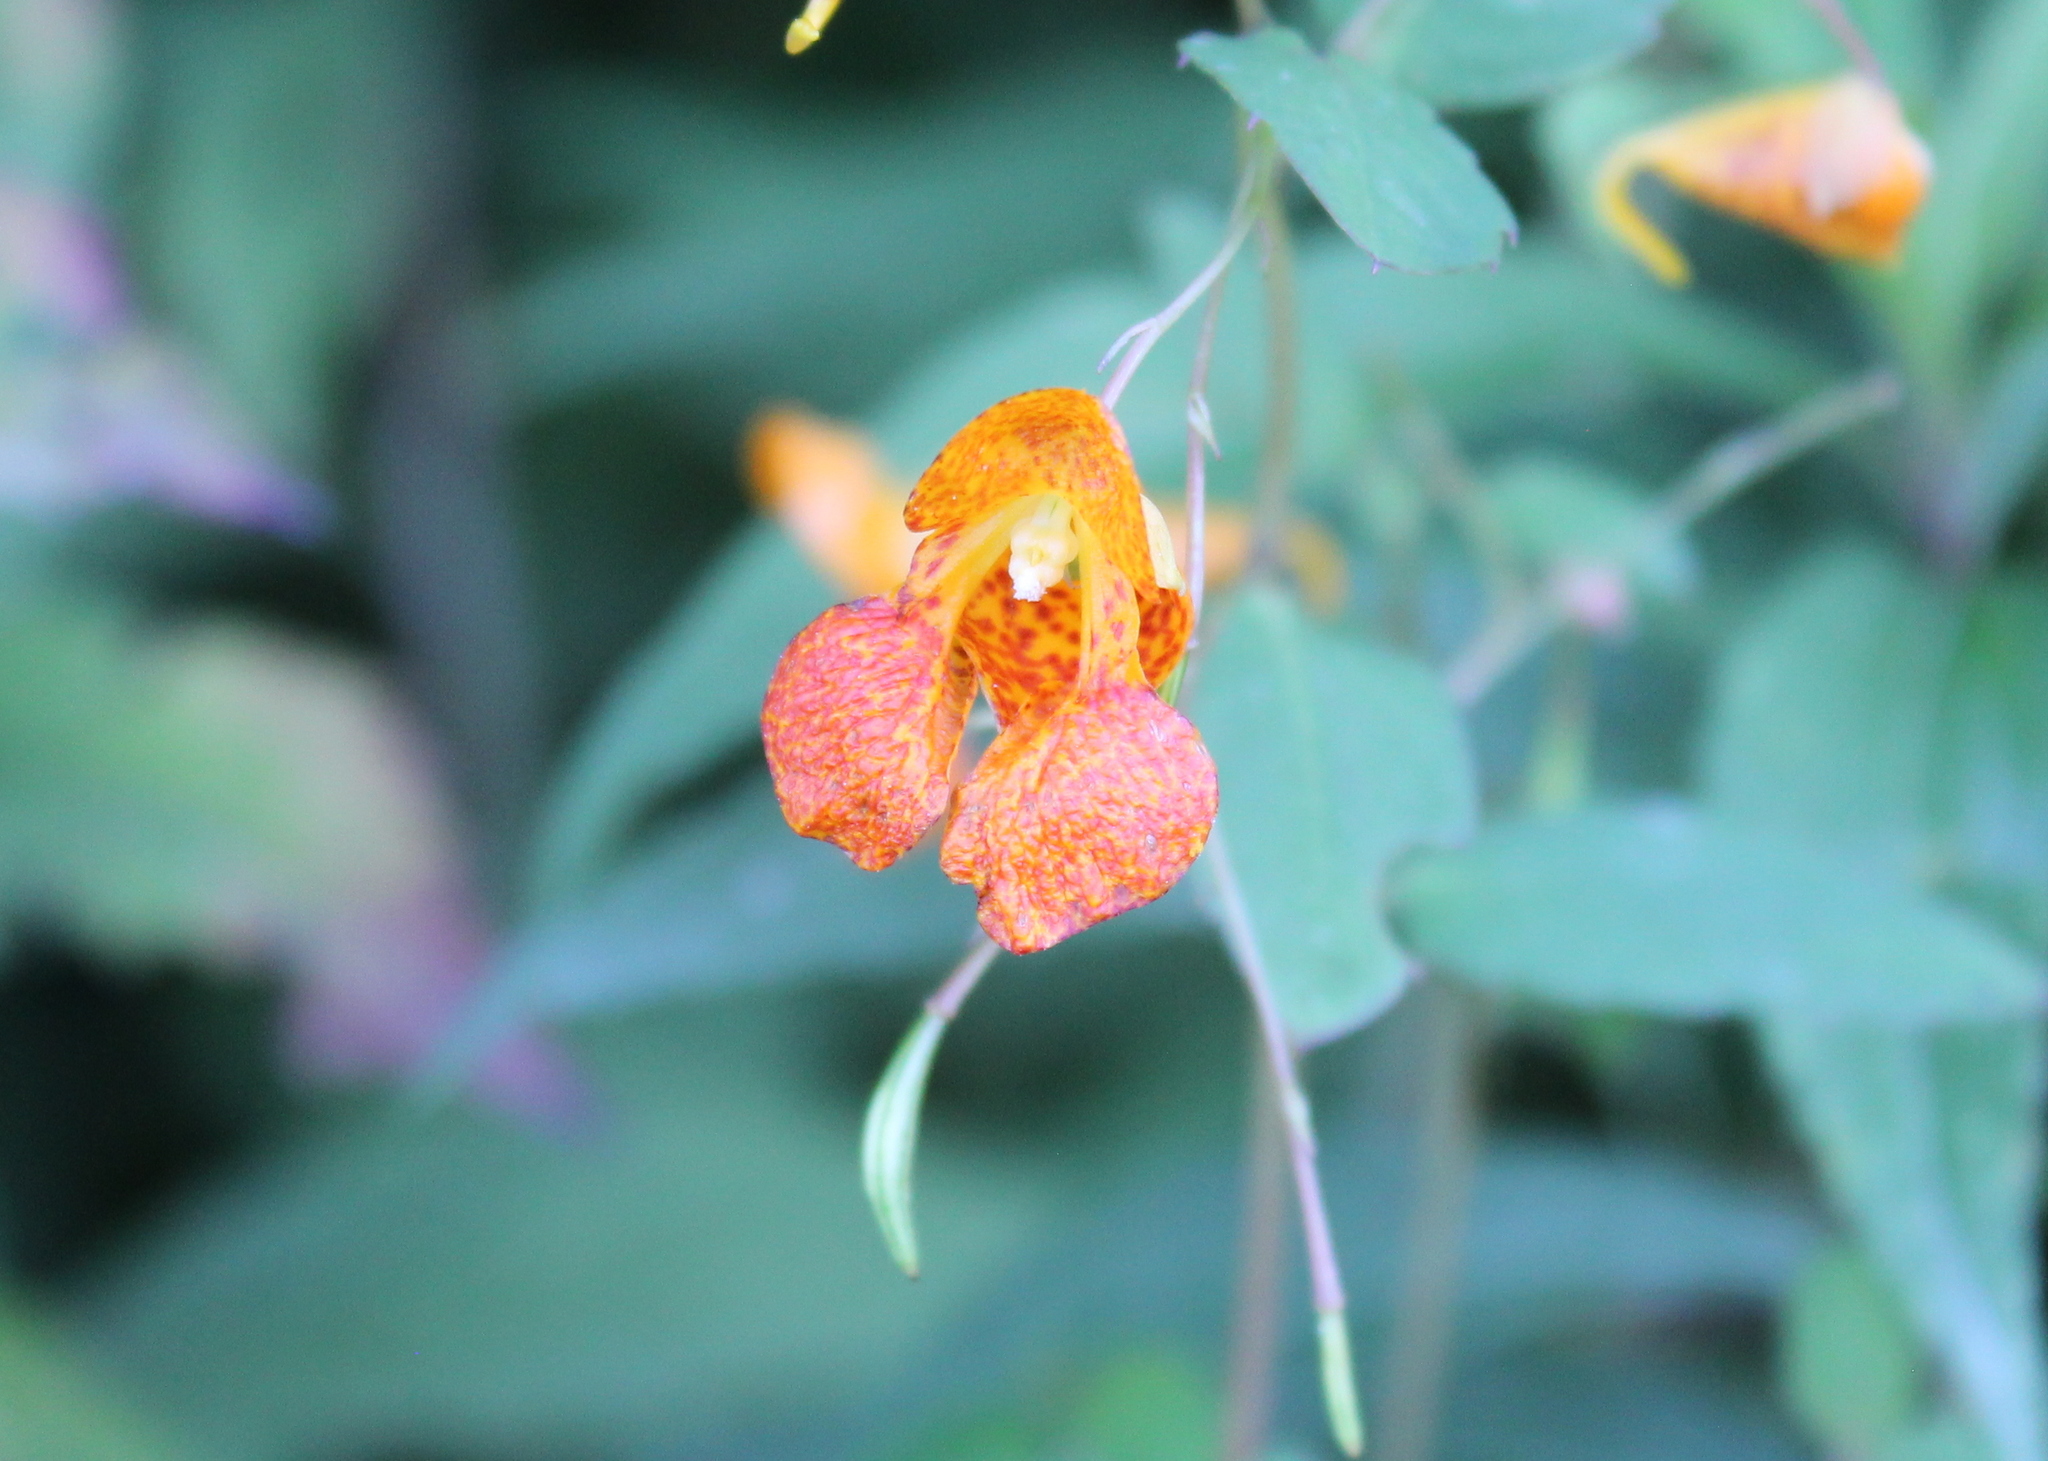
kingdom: Plantae
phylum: Tracheophyta
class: Magnoliopsida
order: Ericales
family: Balsaminaceae
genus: Impatiens
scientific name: Impatiens capensis
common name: Orange balsam
